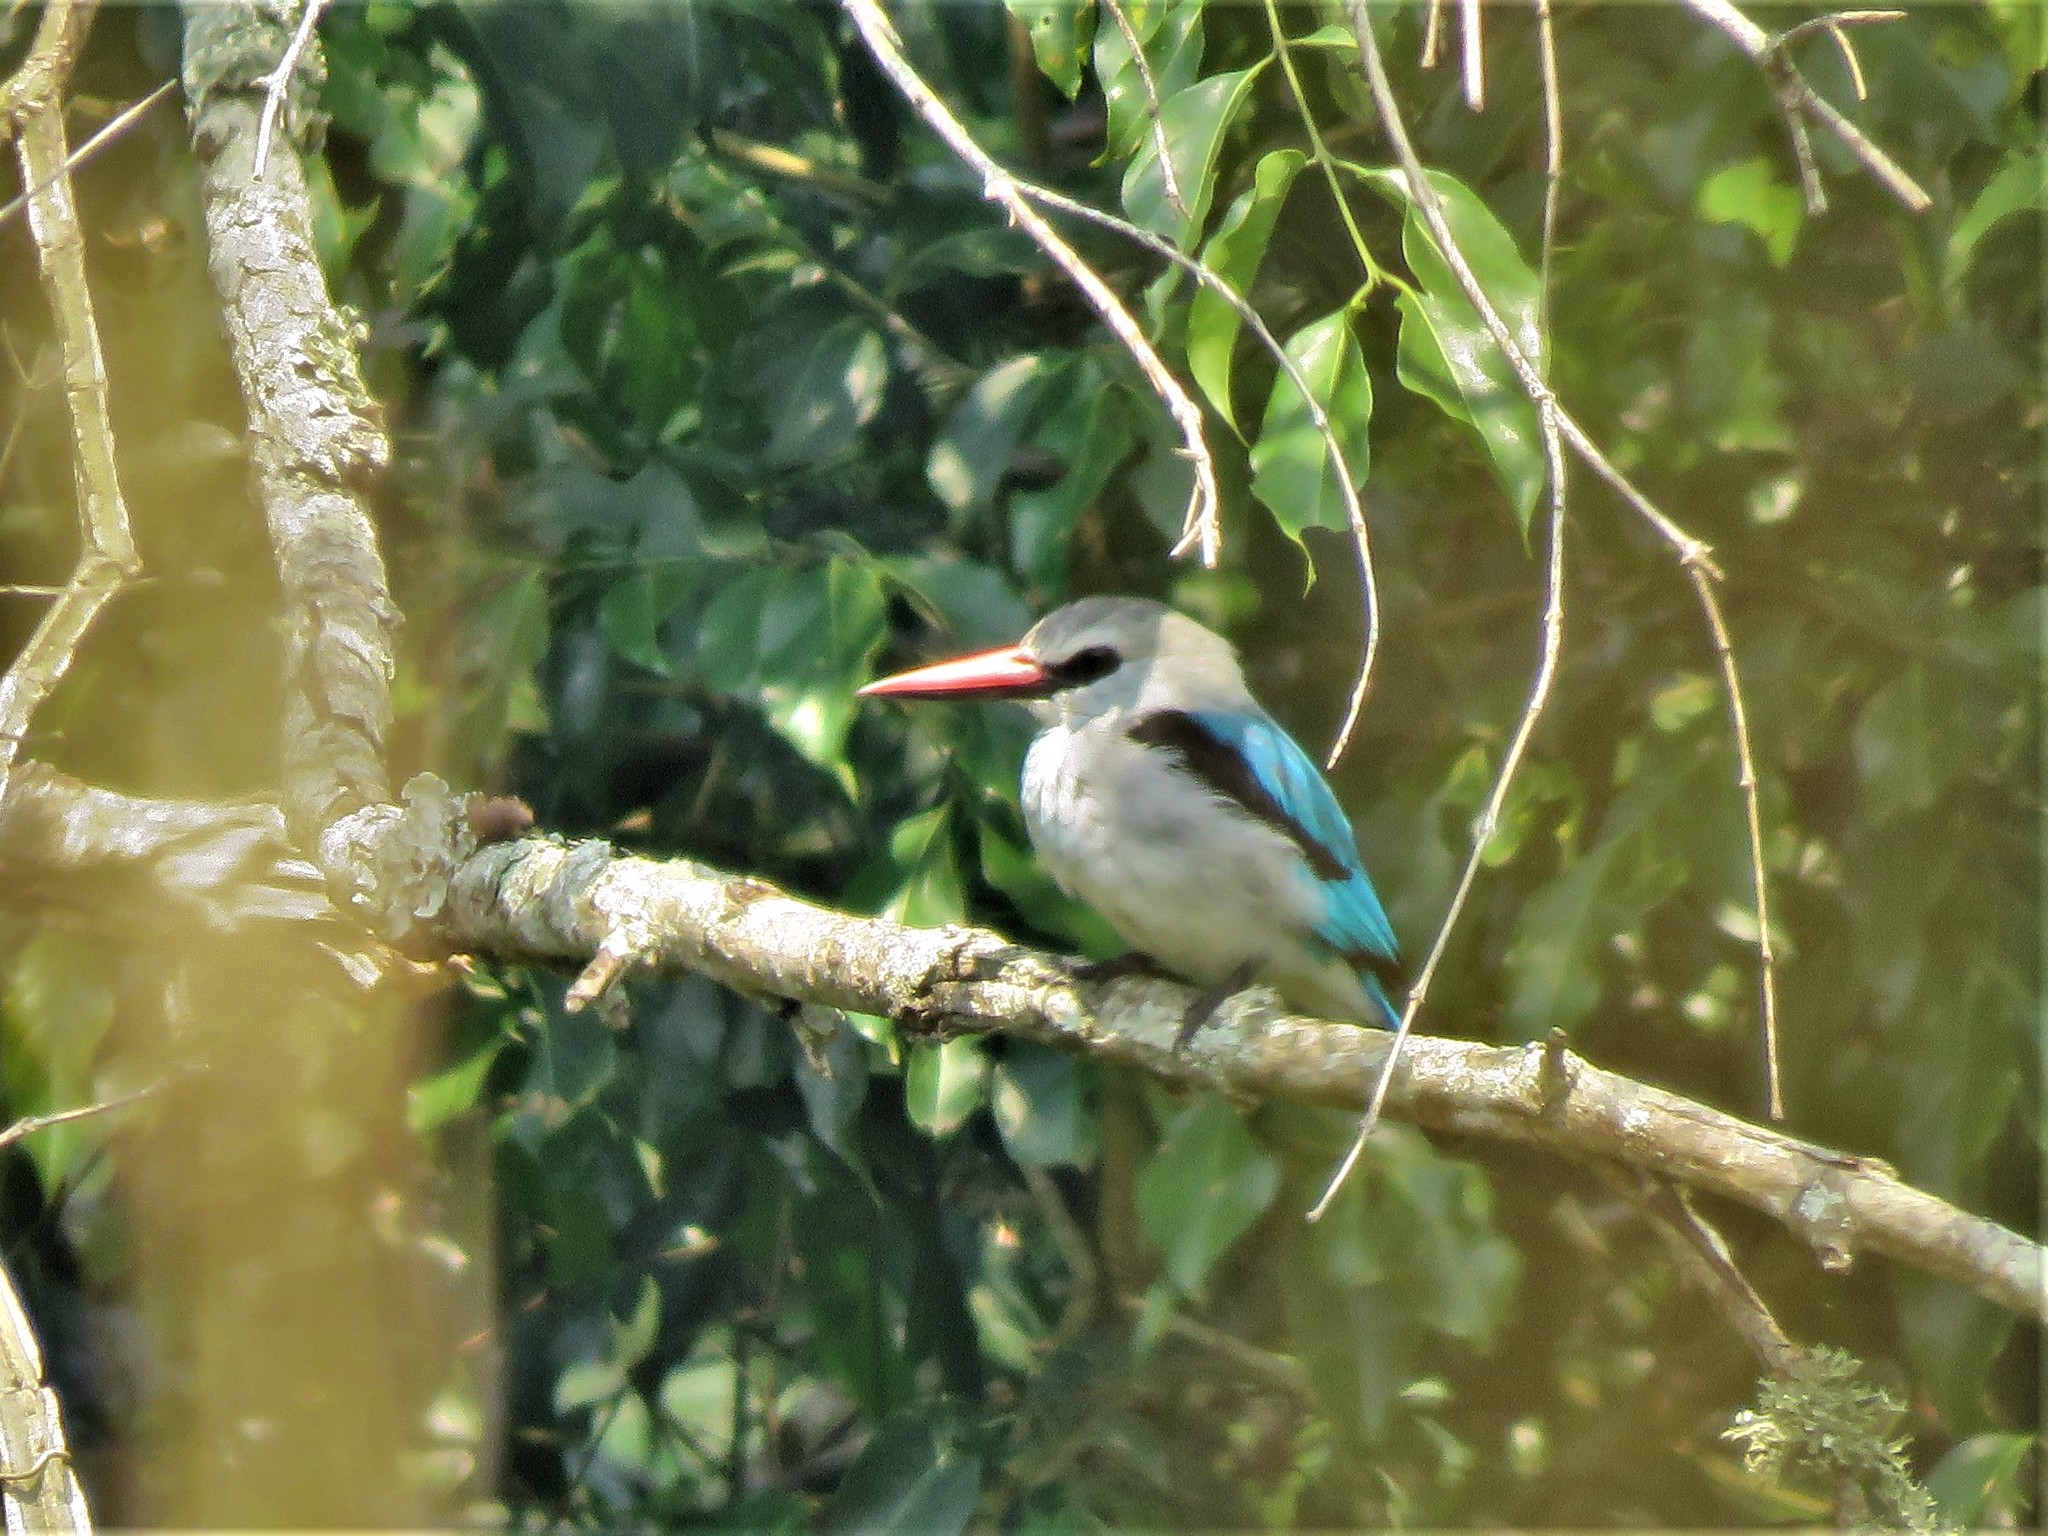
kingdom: Animalia
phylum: Chordata
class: Aves
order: Coraciiformes
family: Alcedinidae
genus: Halcyon
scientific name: Halcyon senegalensis
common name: Woodland kingfisher
